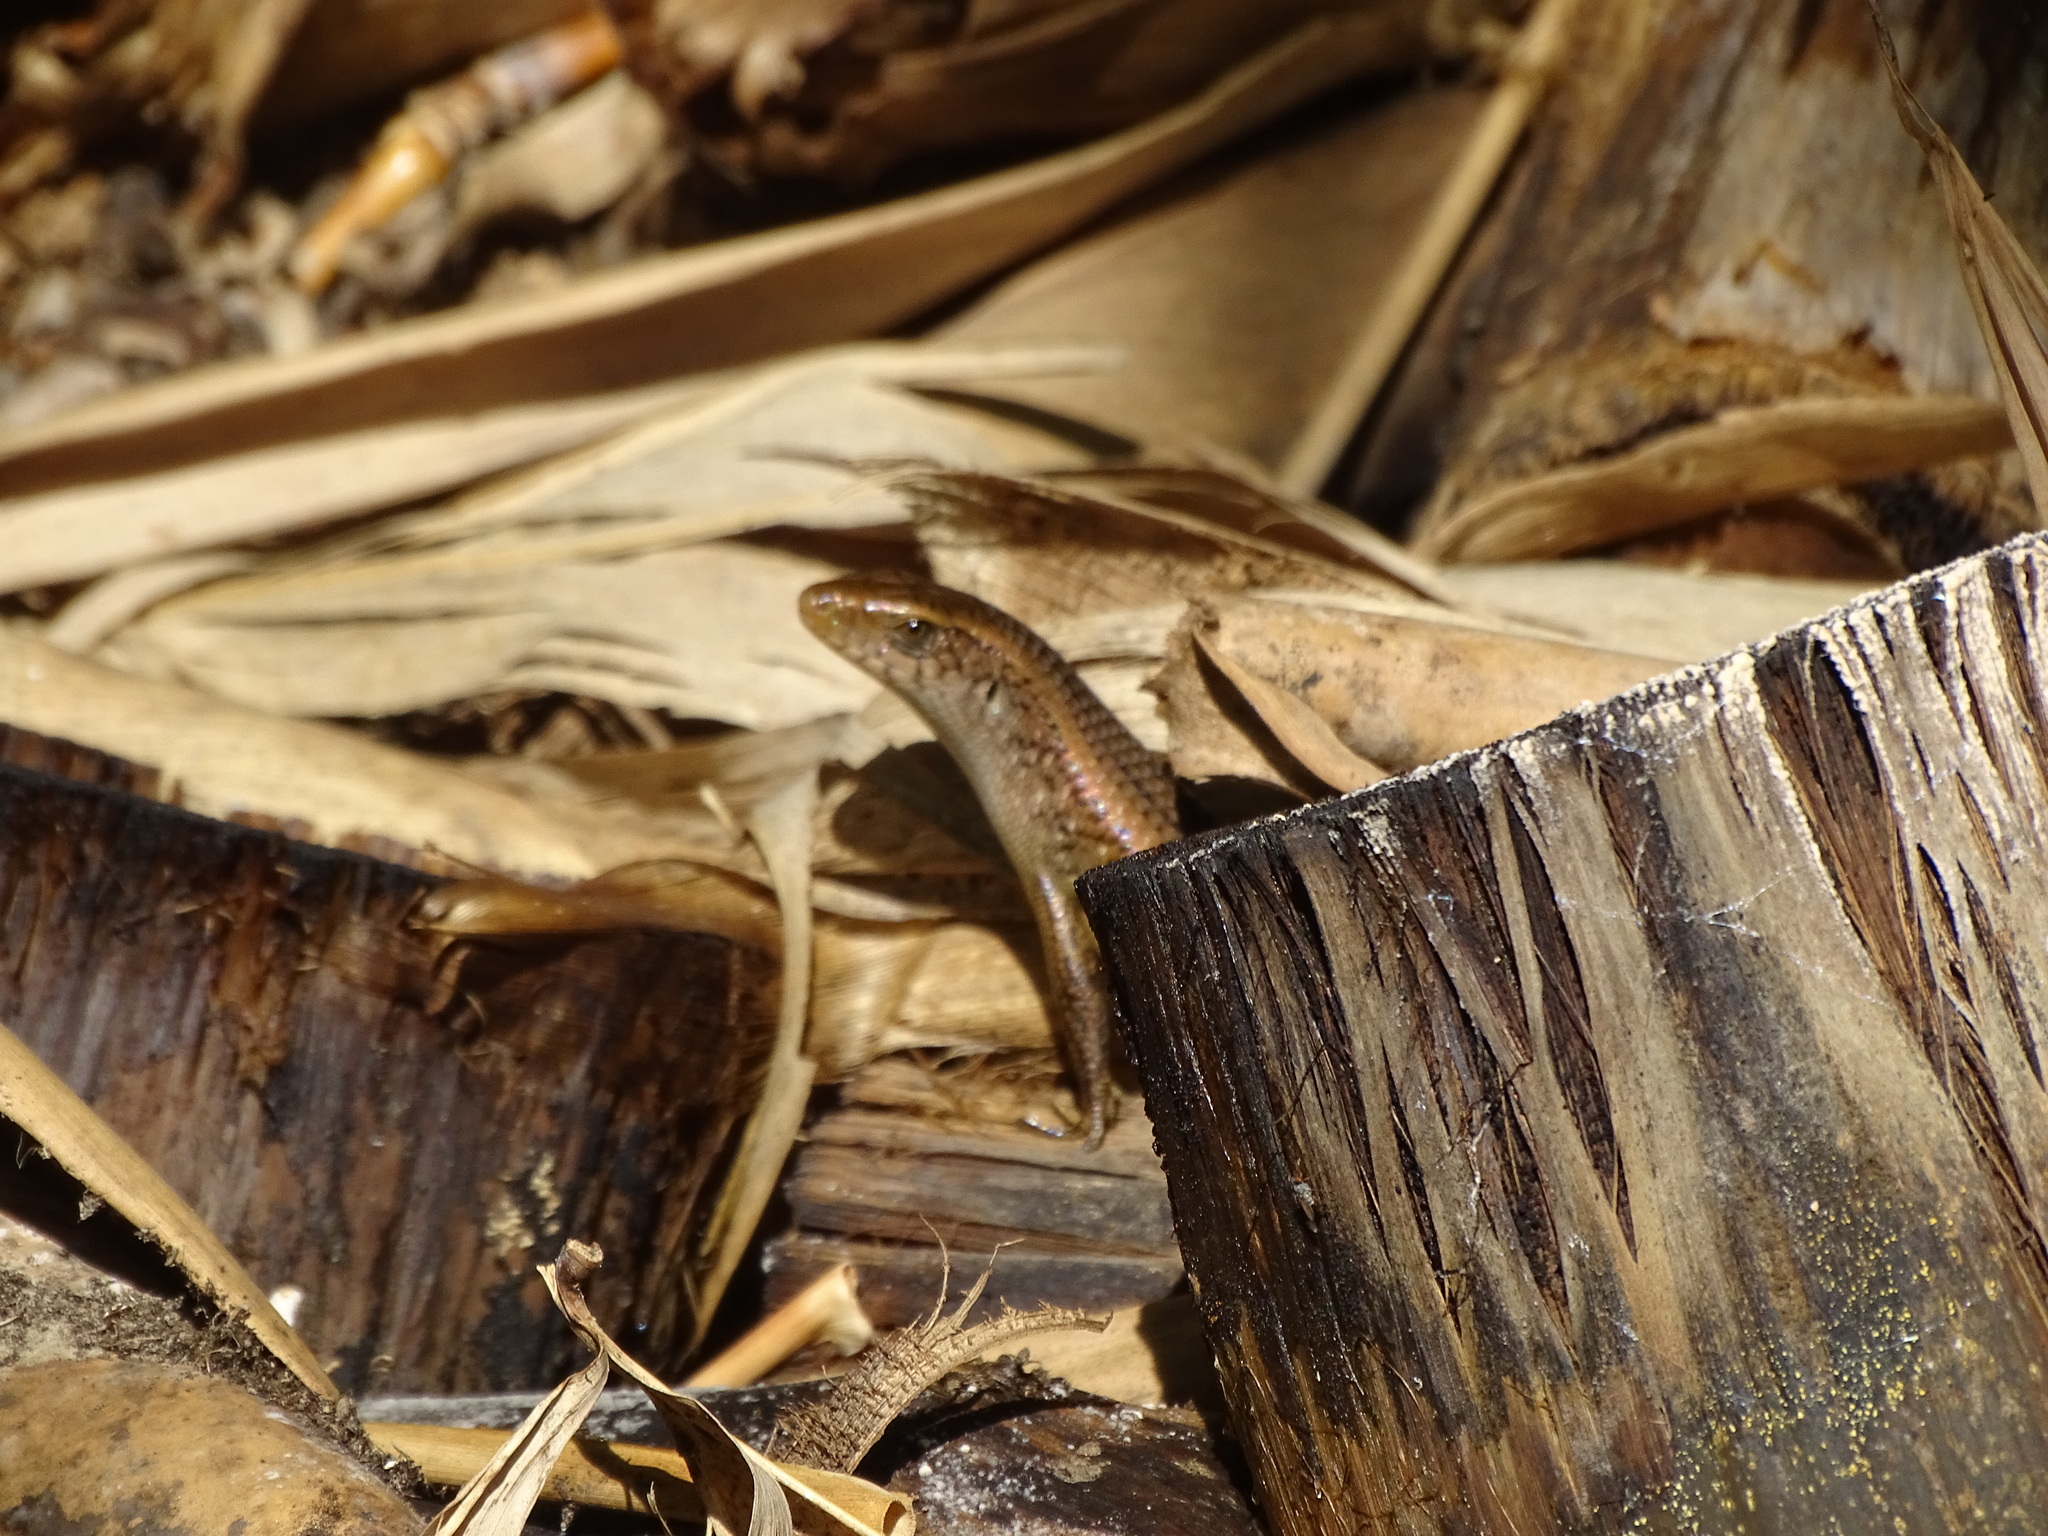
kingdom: Animalia
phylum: Chordata
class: Squamata
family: Scincidae
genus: Eutropis
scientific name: Eutropis multifasciata
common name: Common mabuya
